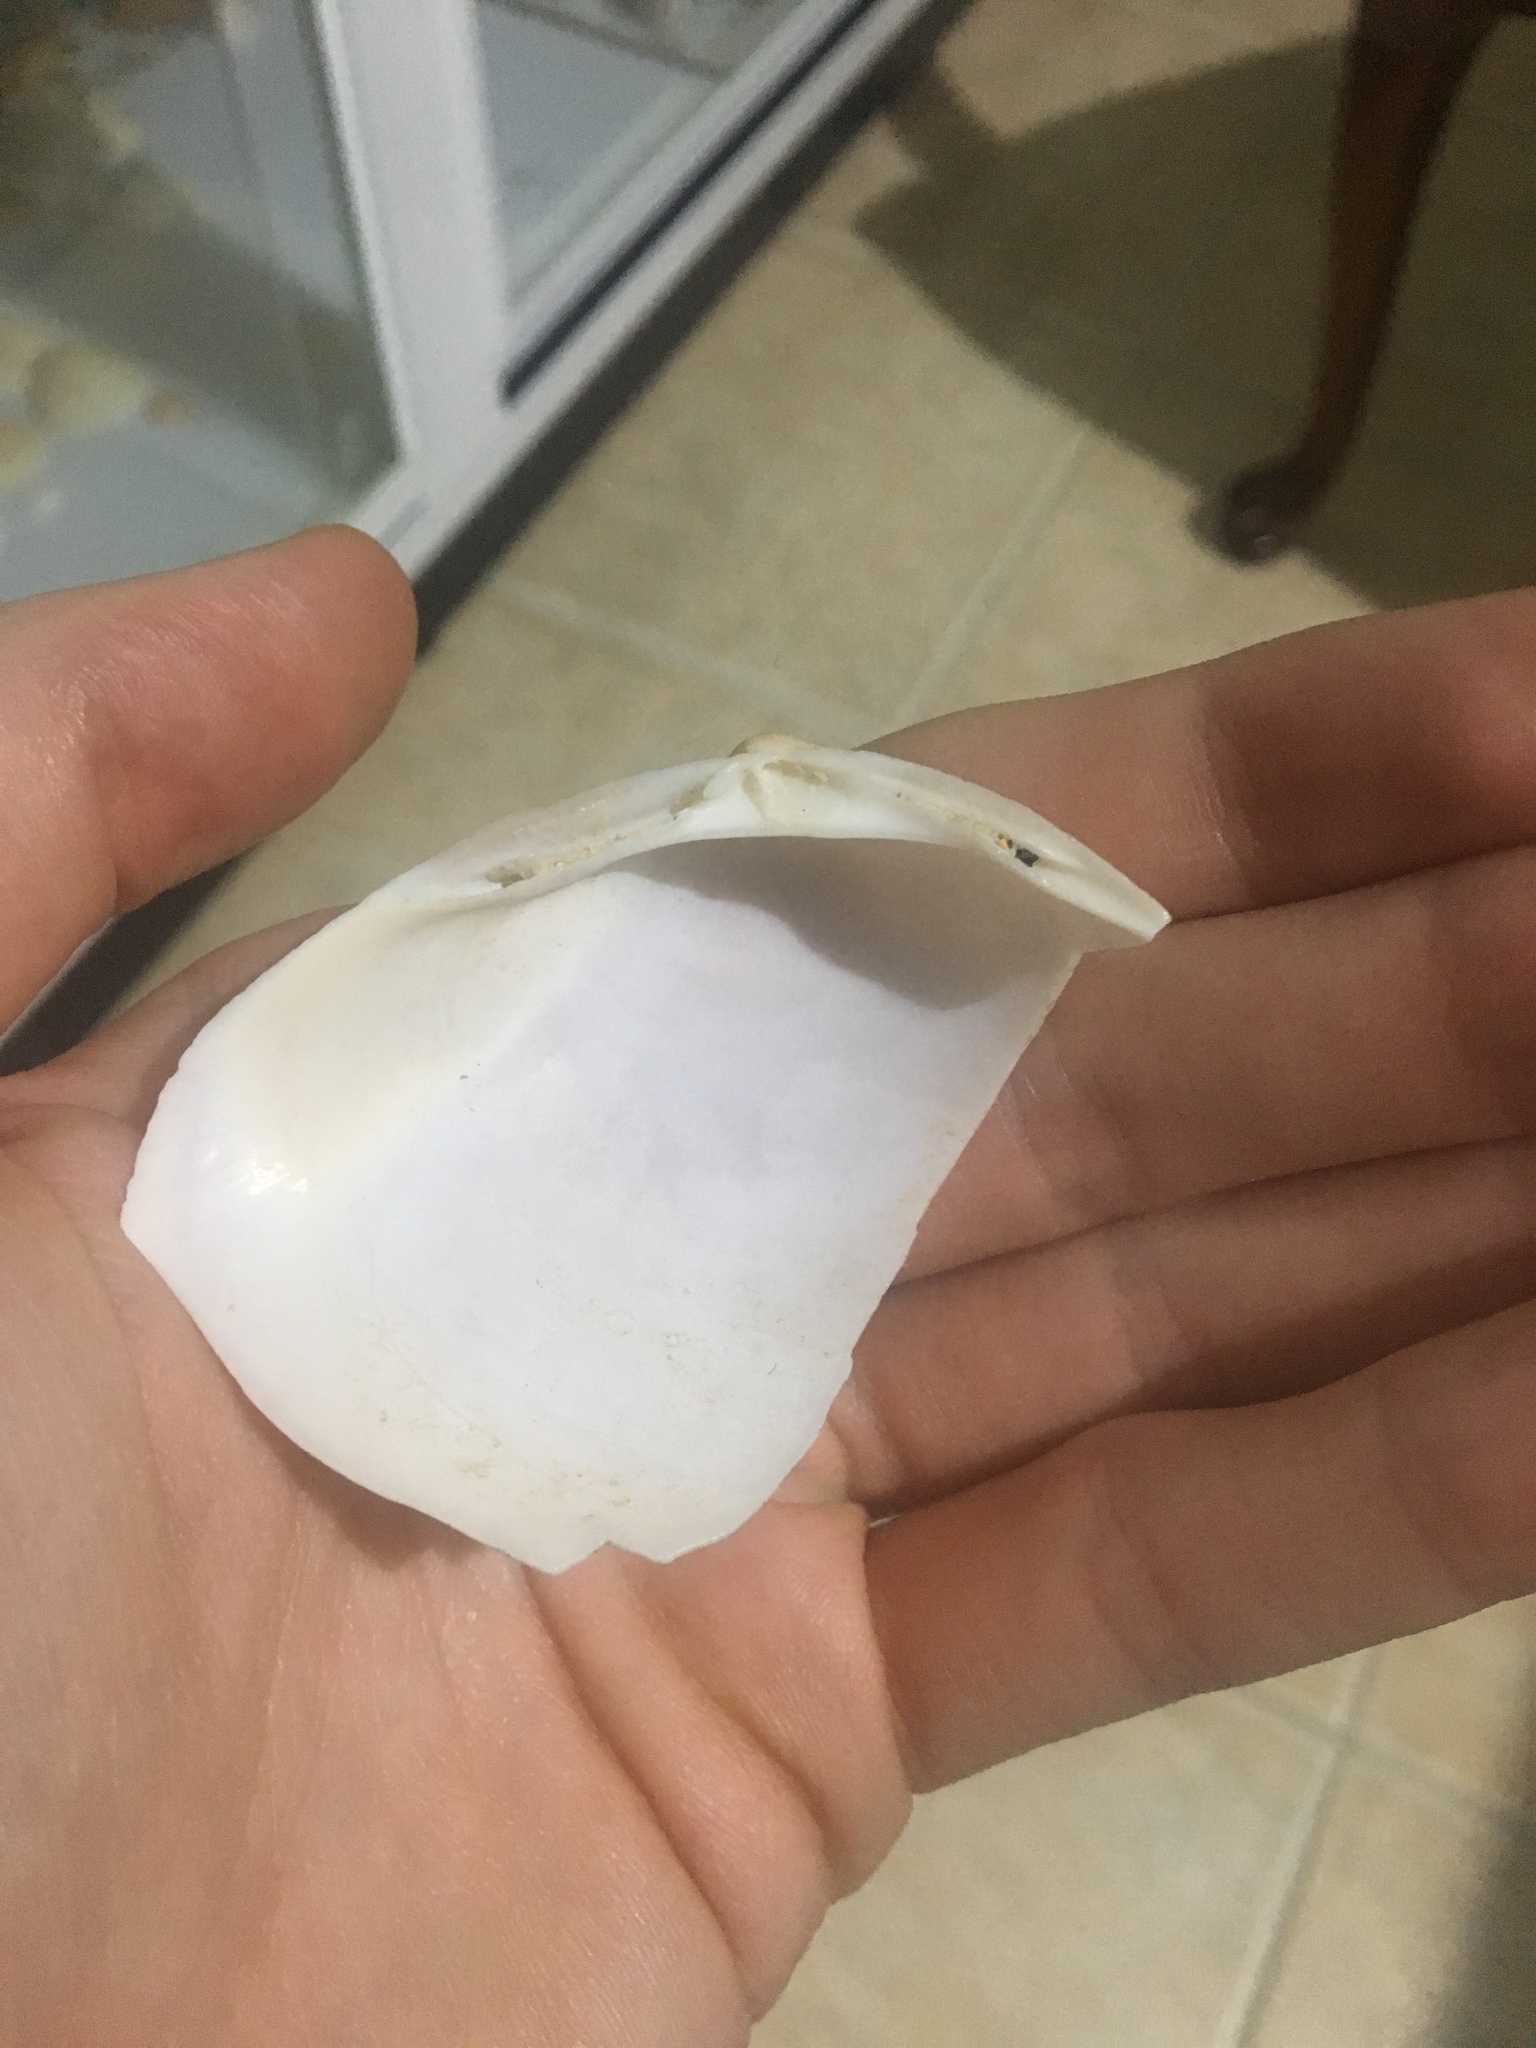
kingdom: Animalia
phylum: Mollusca
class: Bivalvia
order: Venerida
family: Mactridae
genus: Mactra
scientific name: Mactra eximia
